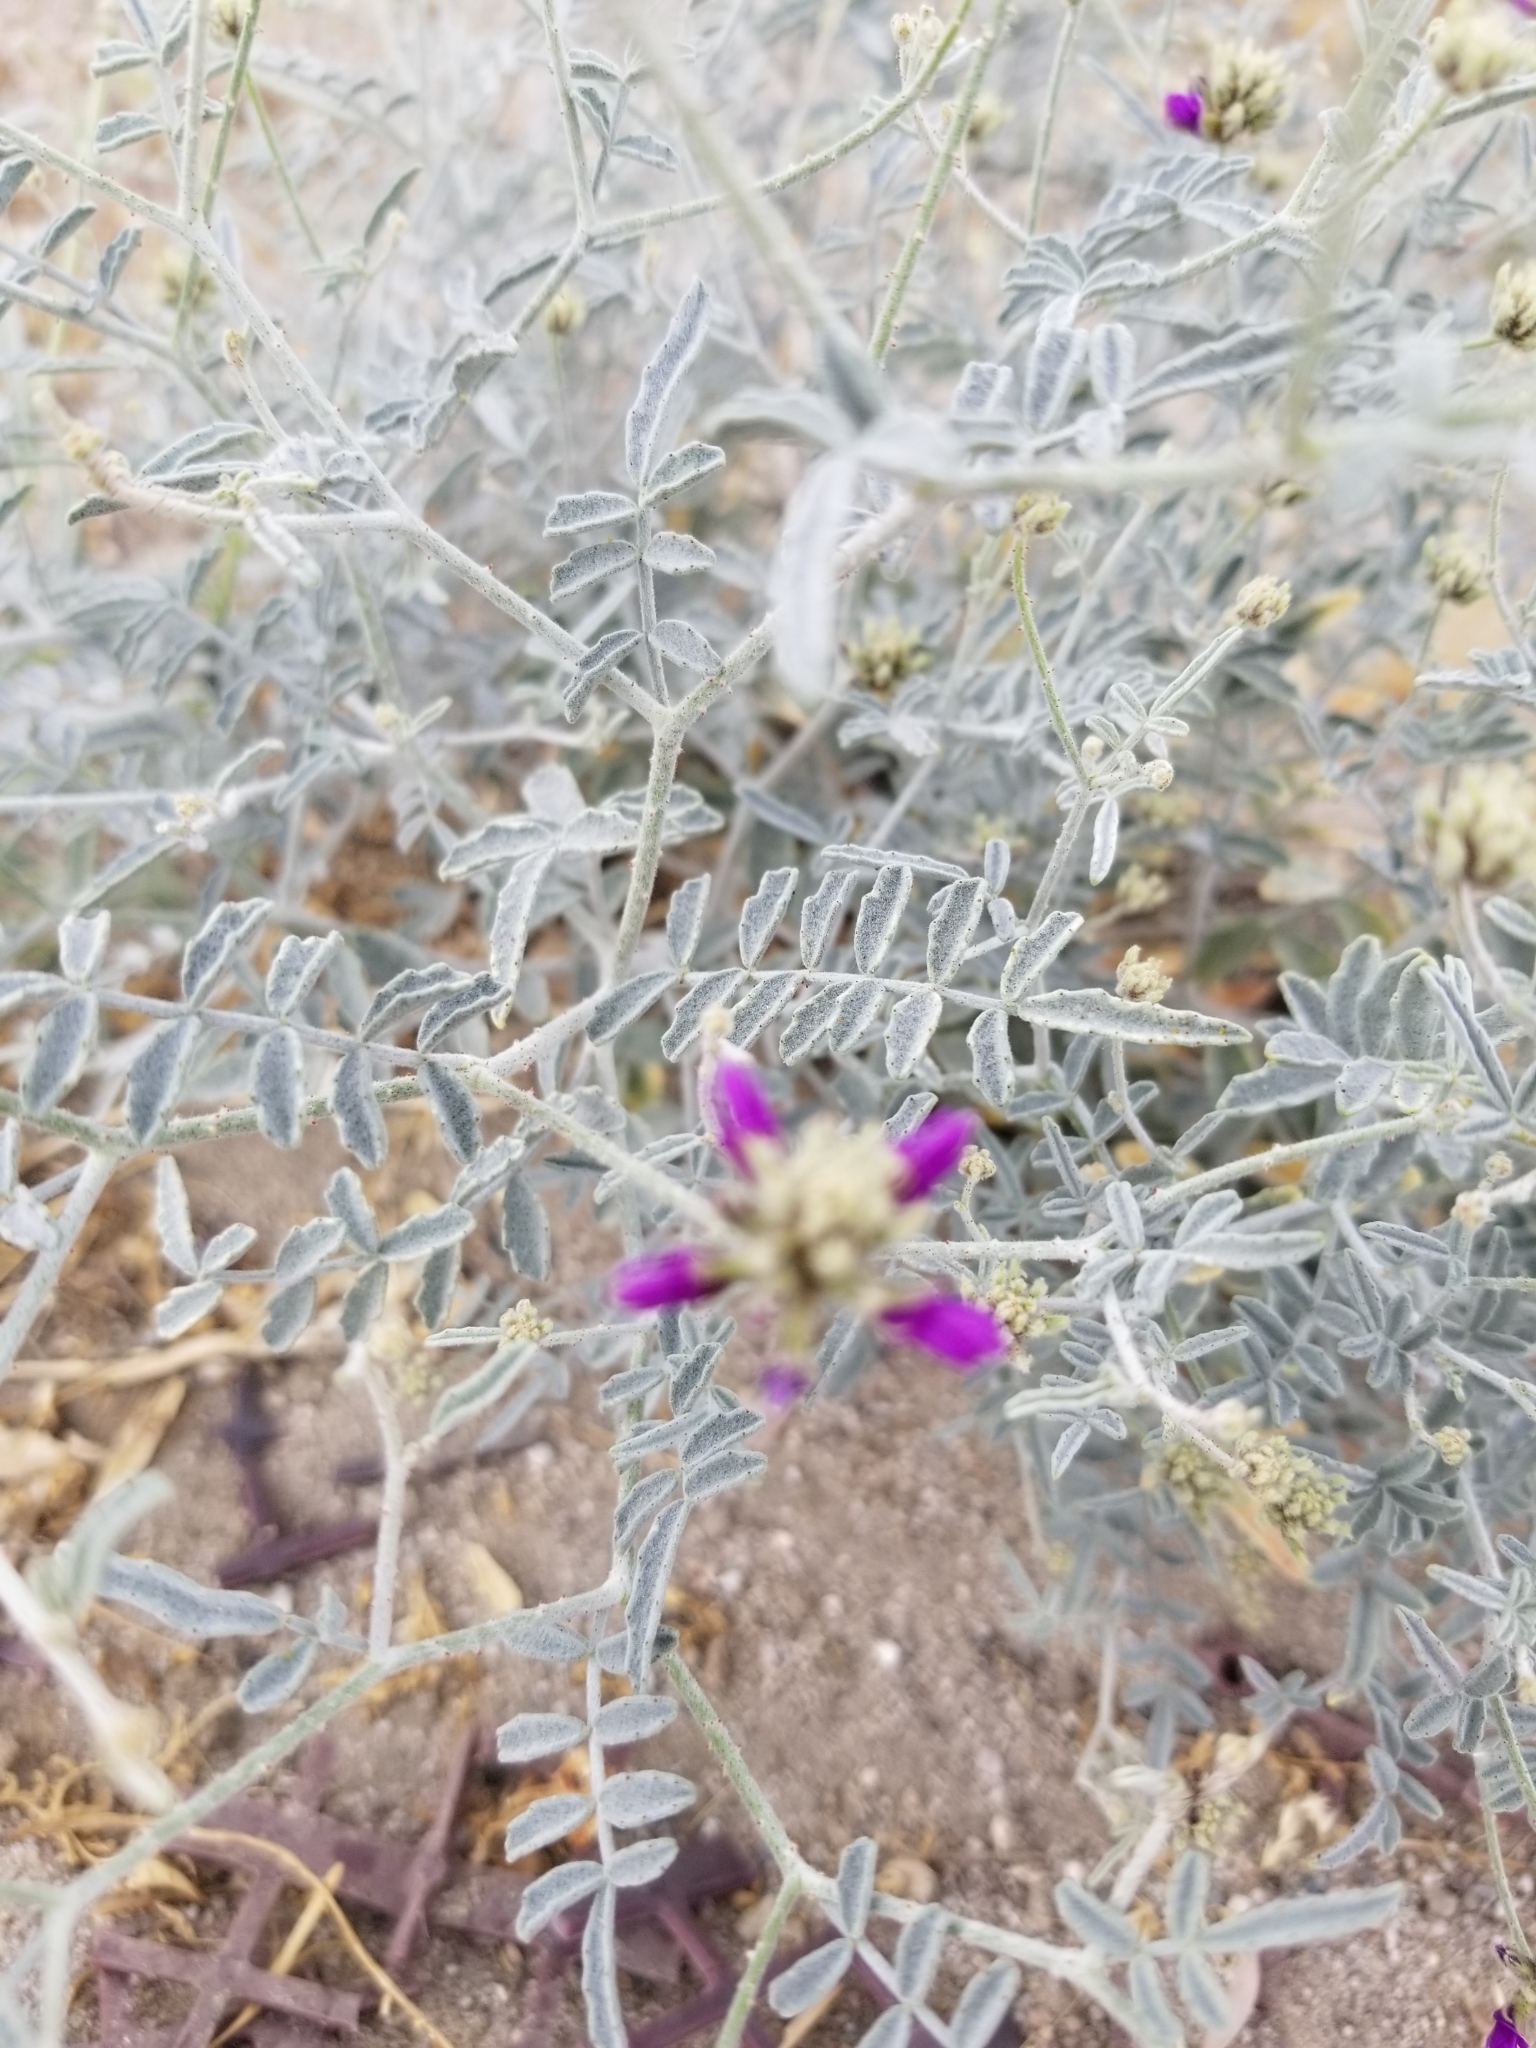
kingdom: Plantae
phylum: Tracheophyta
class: Magnoliopsida
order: Fabales
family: Fabaceae
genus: Psorothamnus
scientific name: Psorothamnus emoryi
